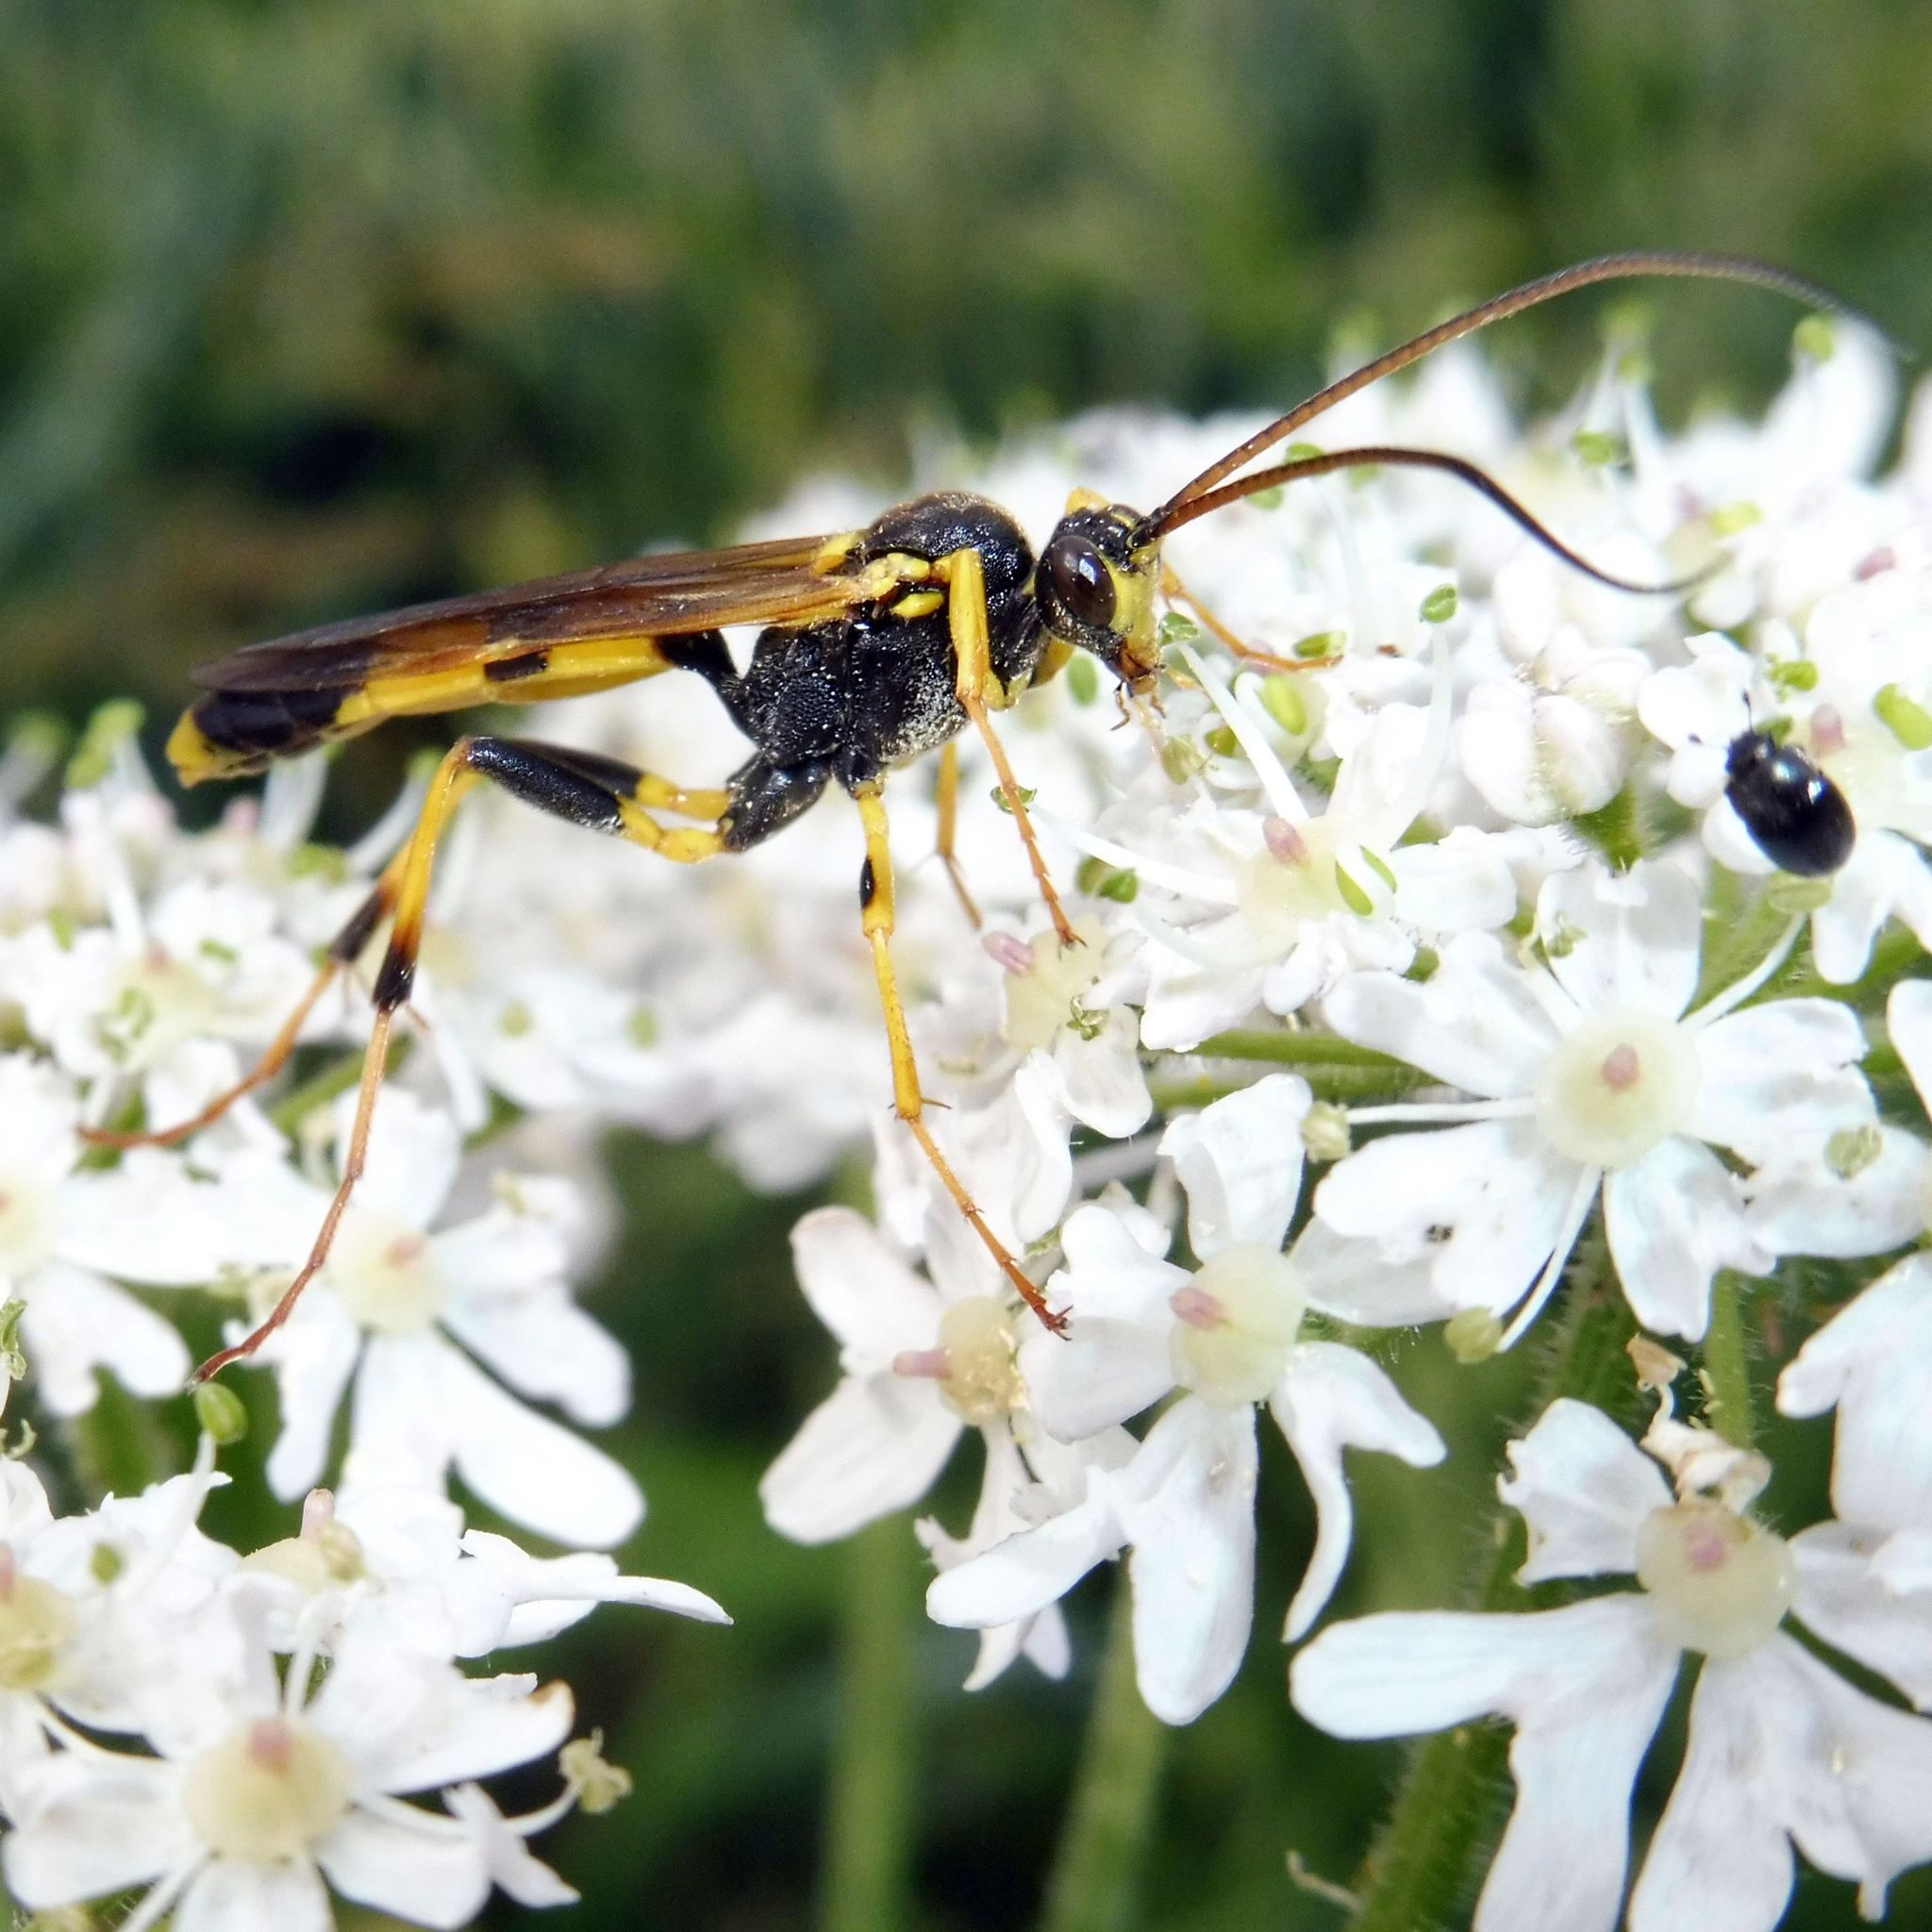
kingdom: Animalia
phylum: Arthropoda
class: Insecta
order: Hymenoptera
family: Ichneumonidae
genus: Amblyteles
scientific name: Amblyteles armatorius
